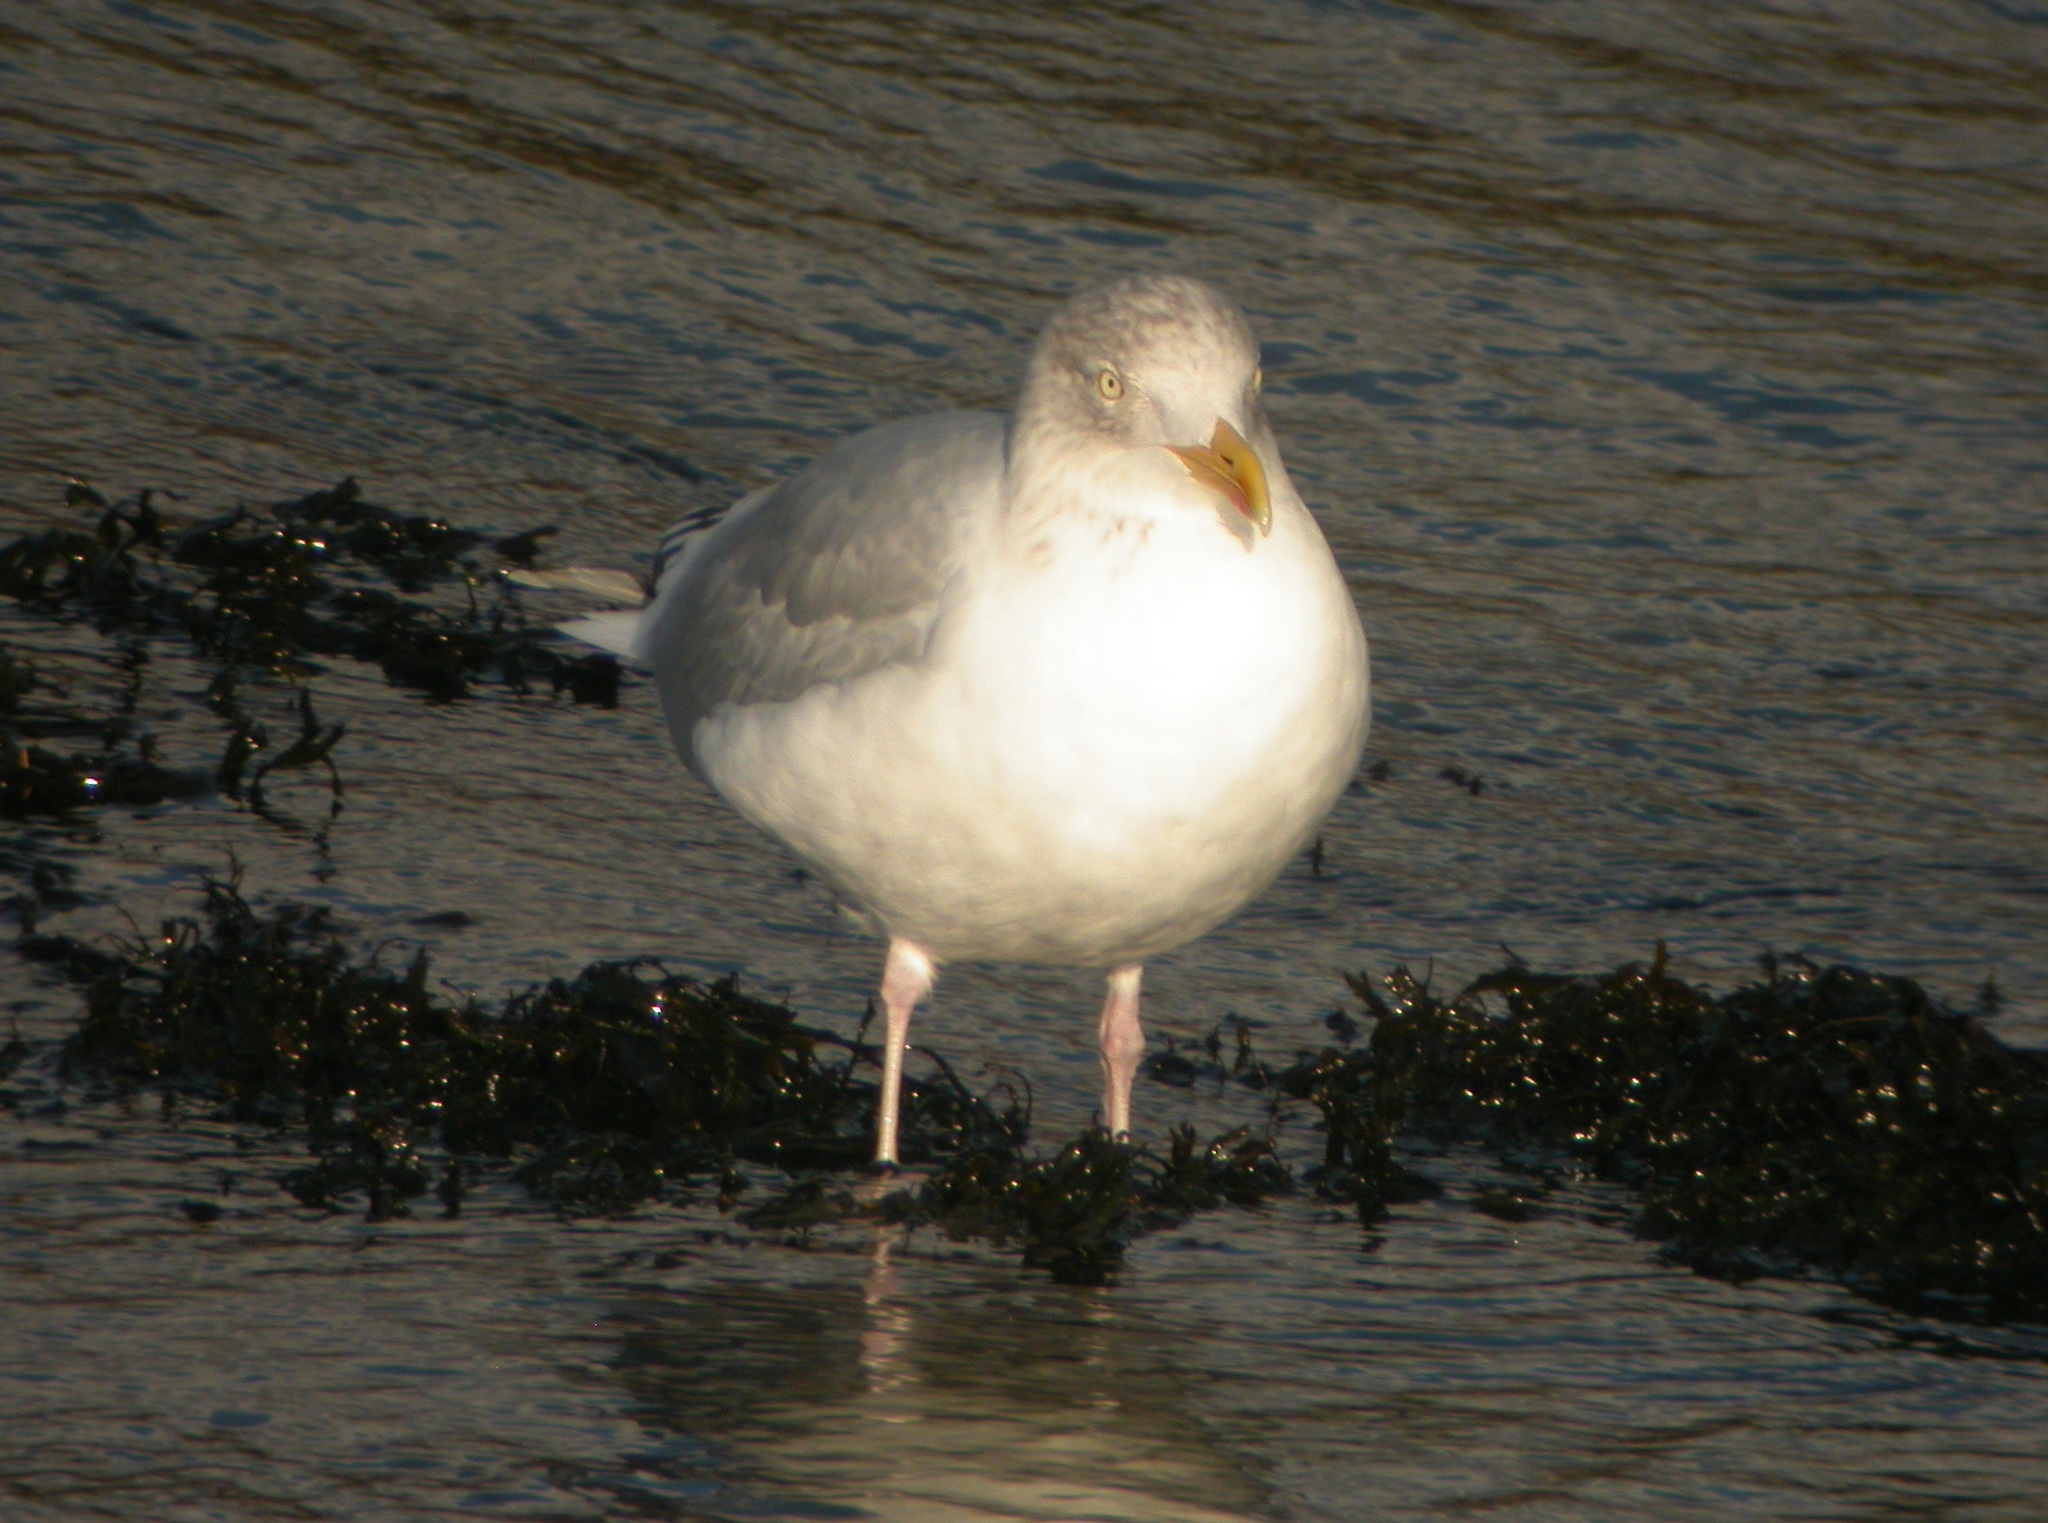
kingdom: Animalia
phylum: Chordata
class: Aves
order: Charadriiformes
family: Laridae
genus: Larus
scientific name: Larus argentatus
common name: Herring gull
